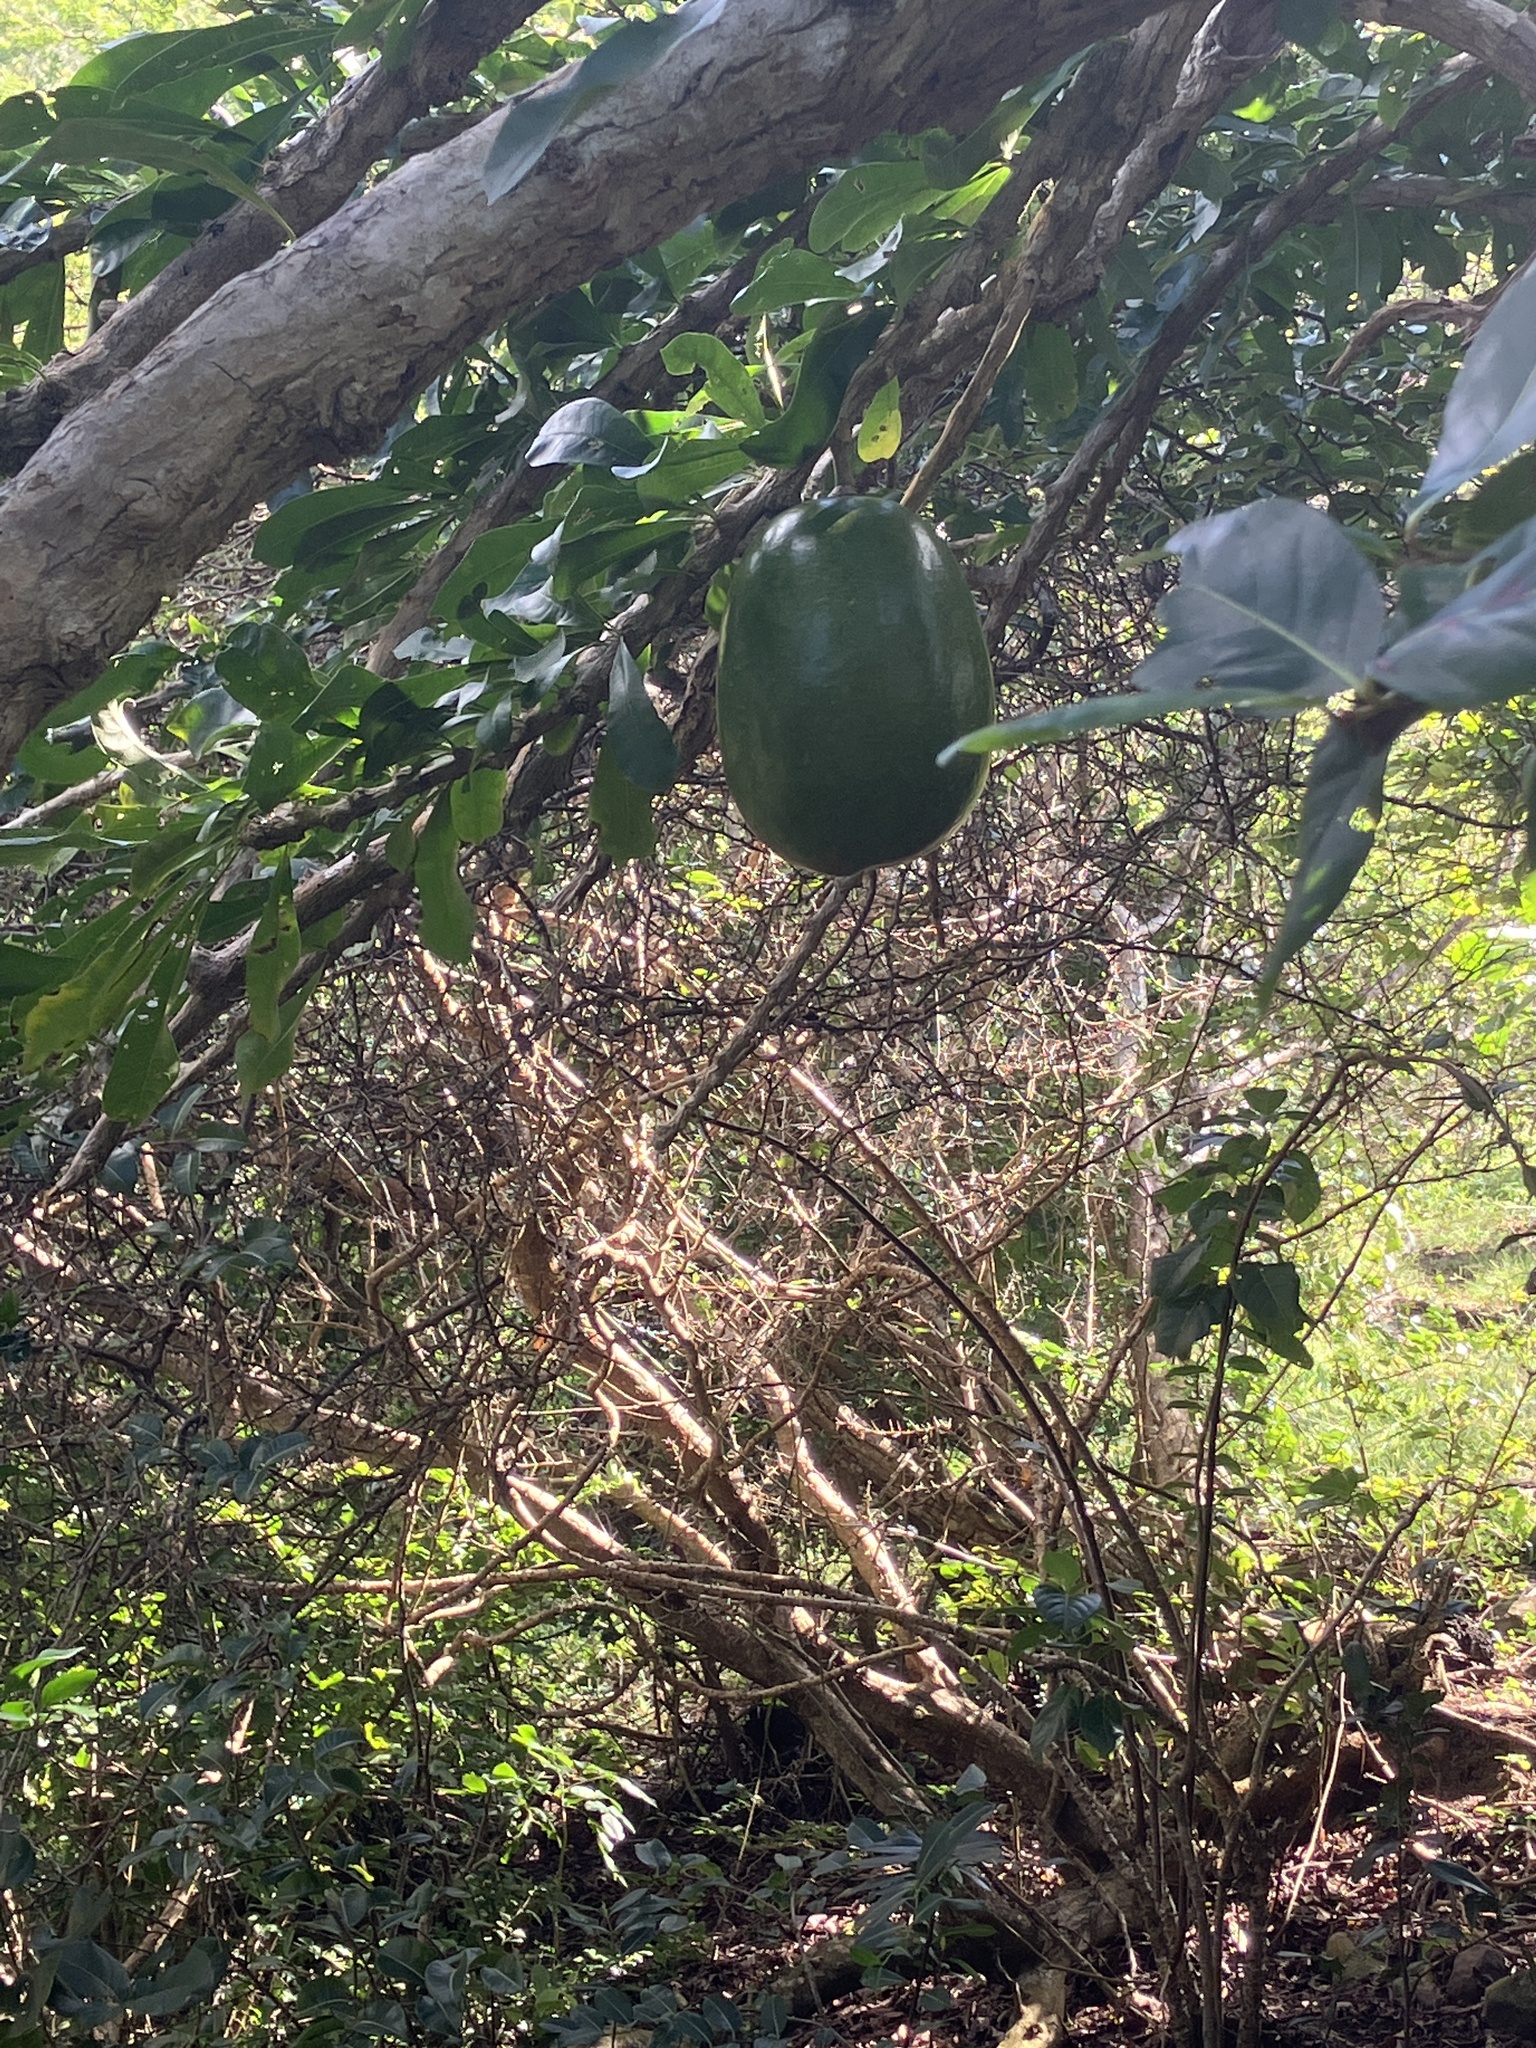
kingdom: Plantae
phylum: Tracheophyta
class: Magnoliopsida
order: Lamiales
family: Bignoniaceae
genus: Crescentia
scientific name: Crescentia cujete
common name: Calabash
